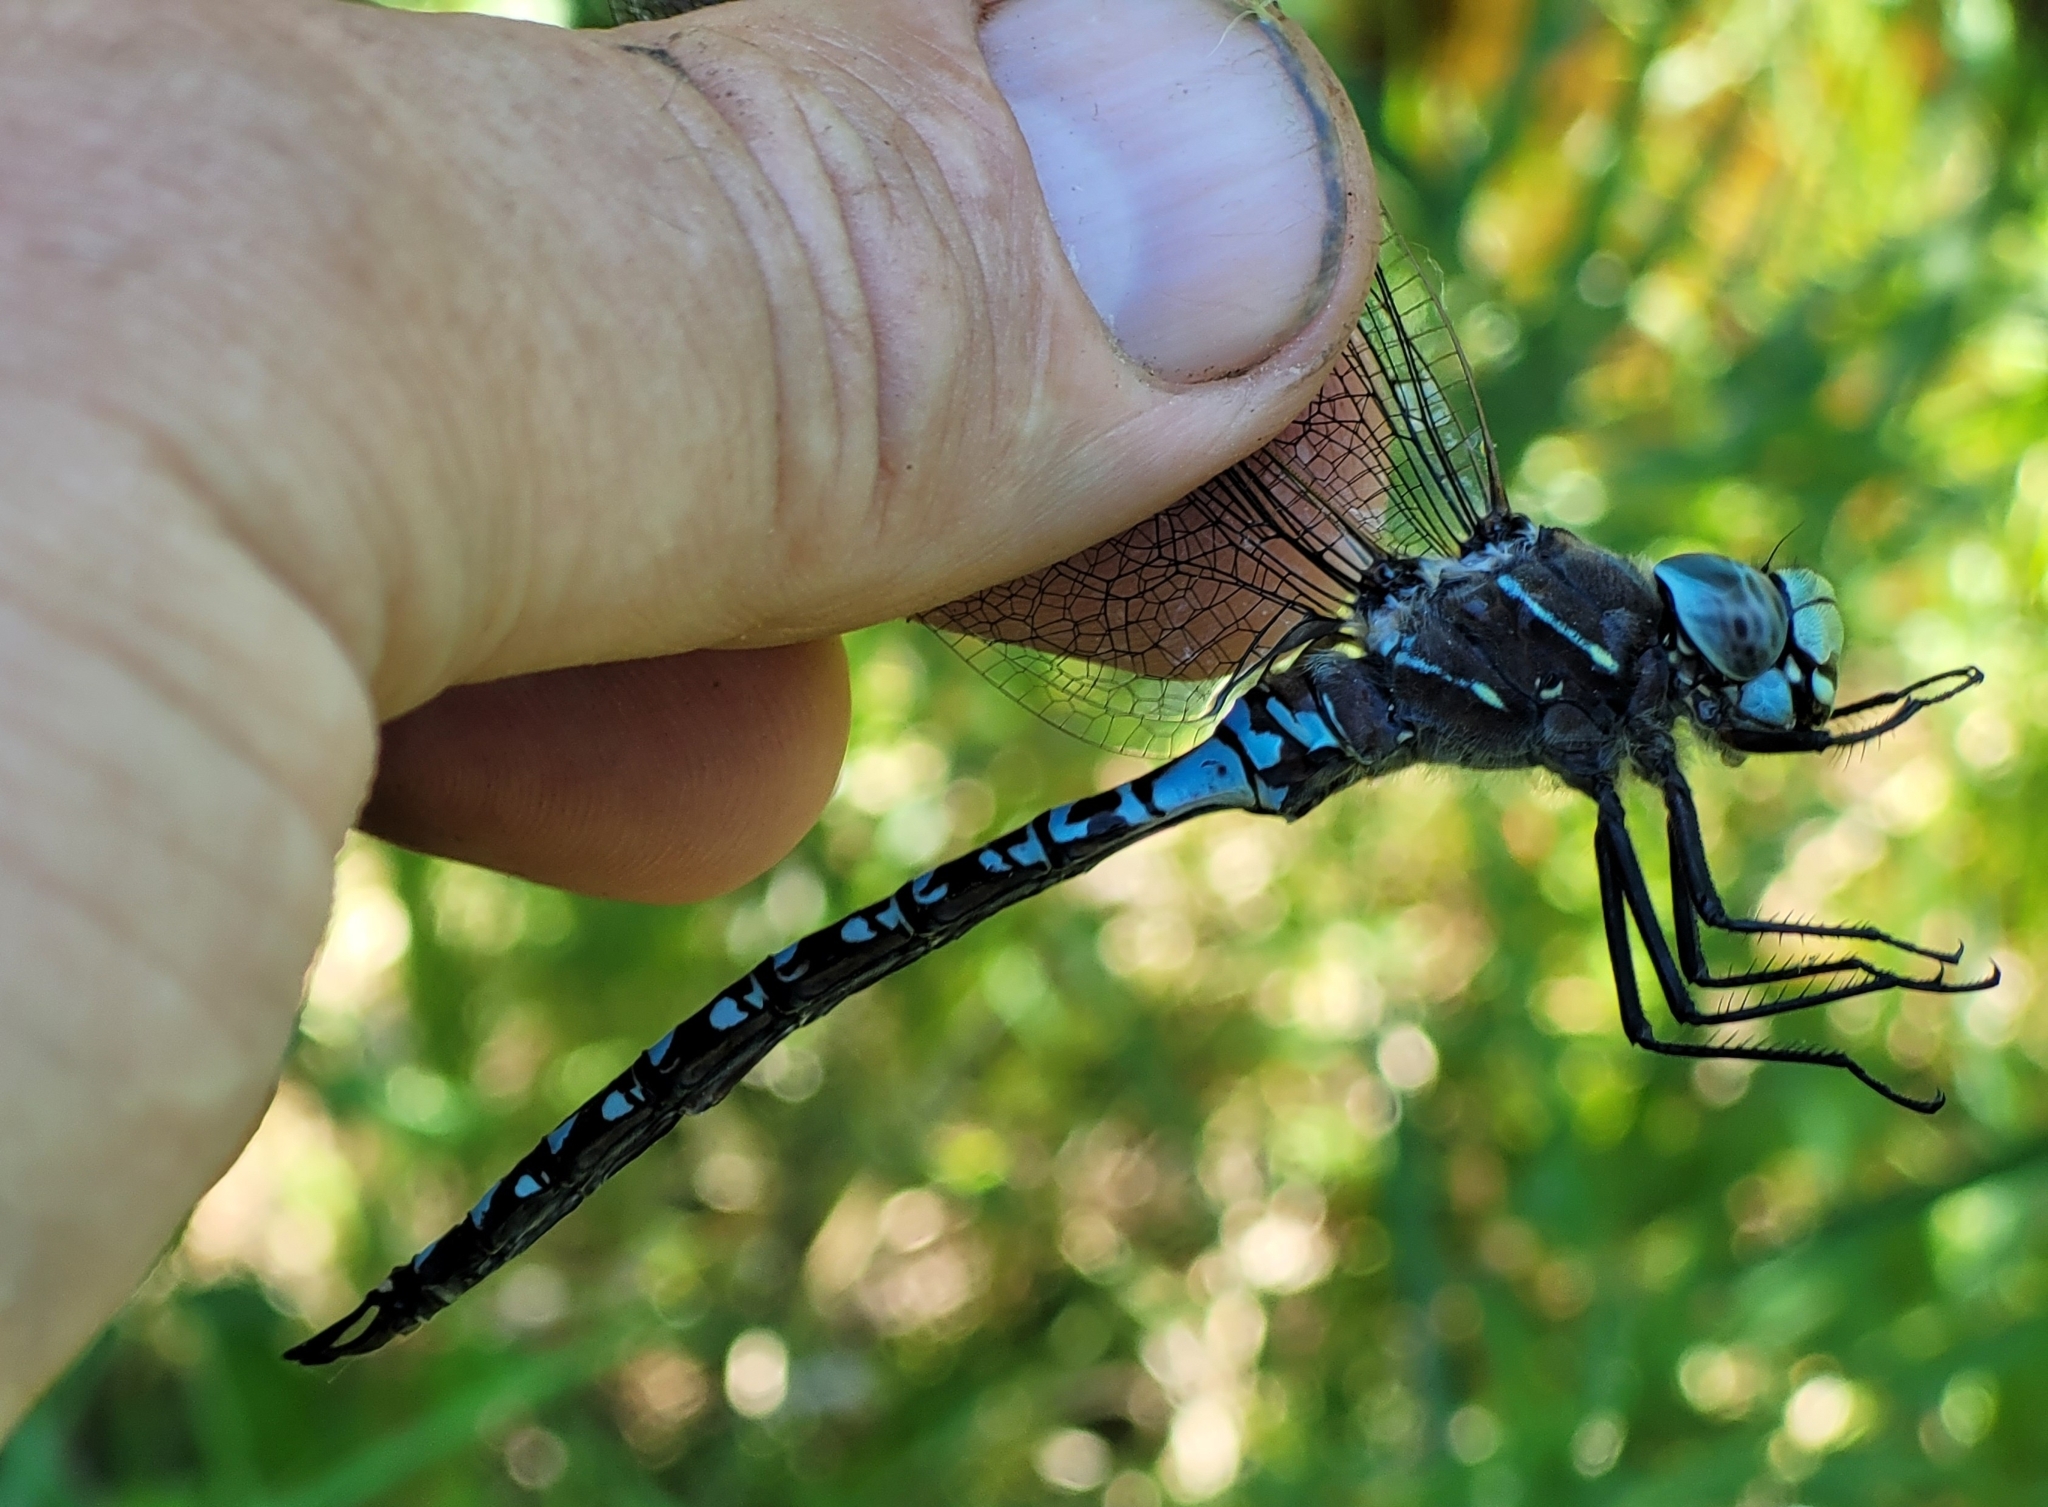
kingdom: Animalia
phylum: Arthropoda
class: Insecta
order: Odonata
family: Aeshnidae
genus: Aeshna
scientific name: Aeshna interrupta
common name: Variable darner
